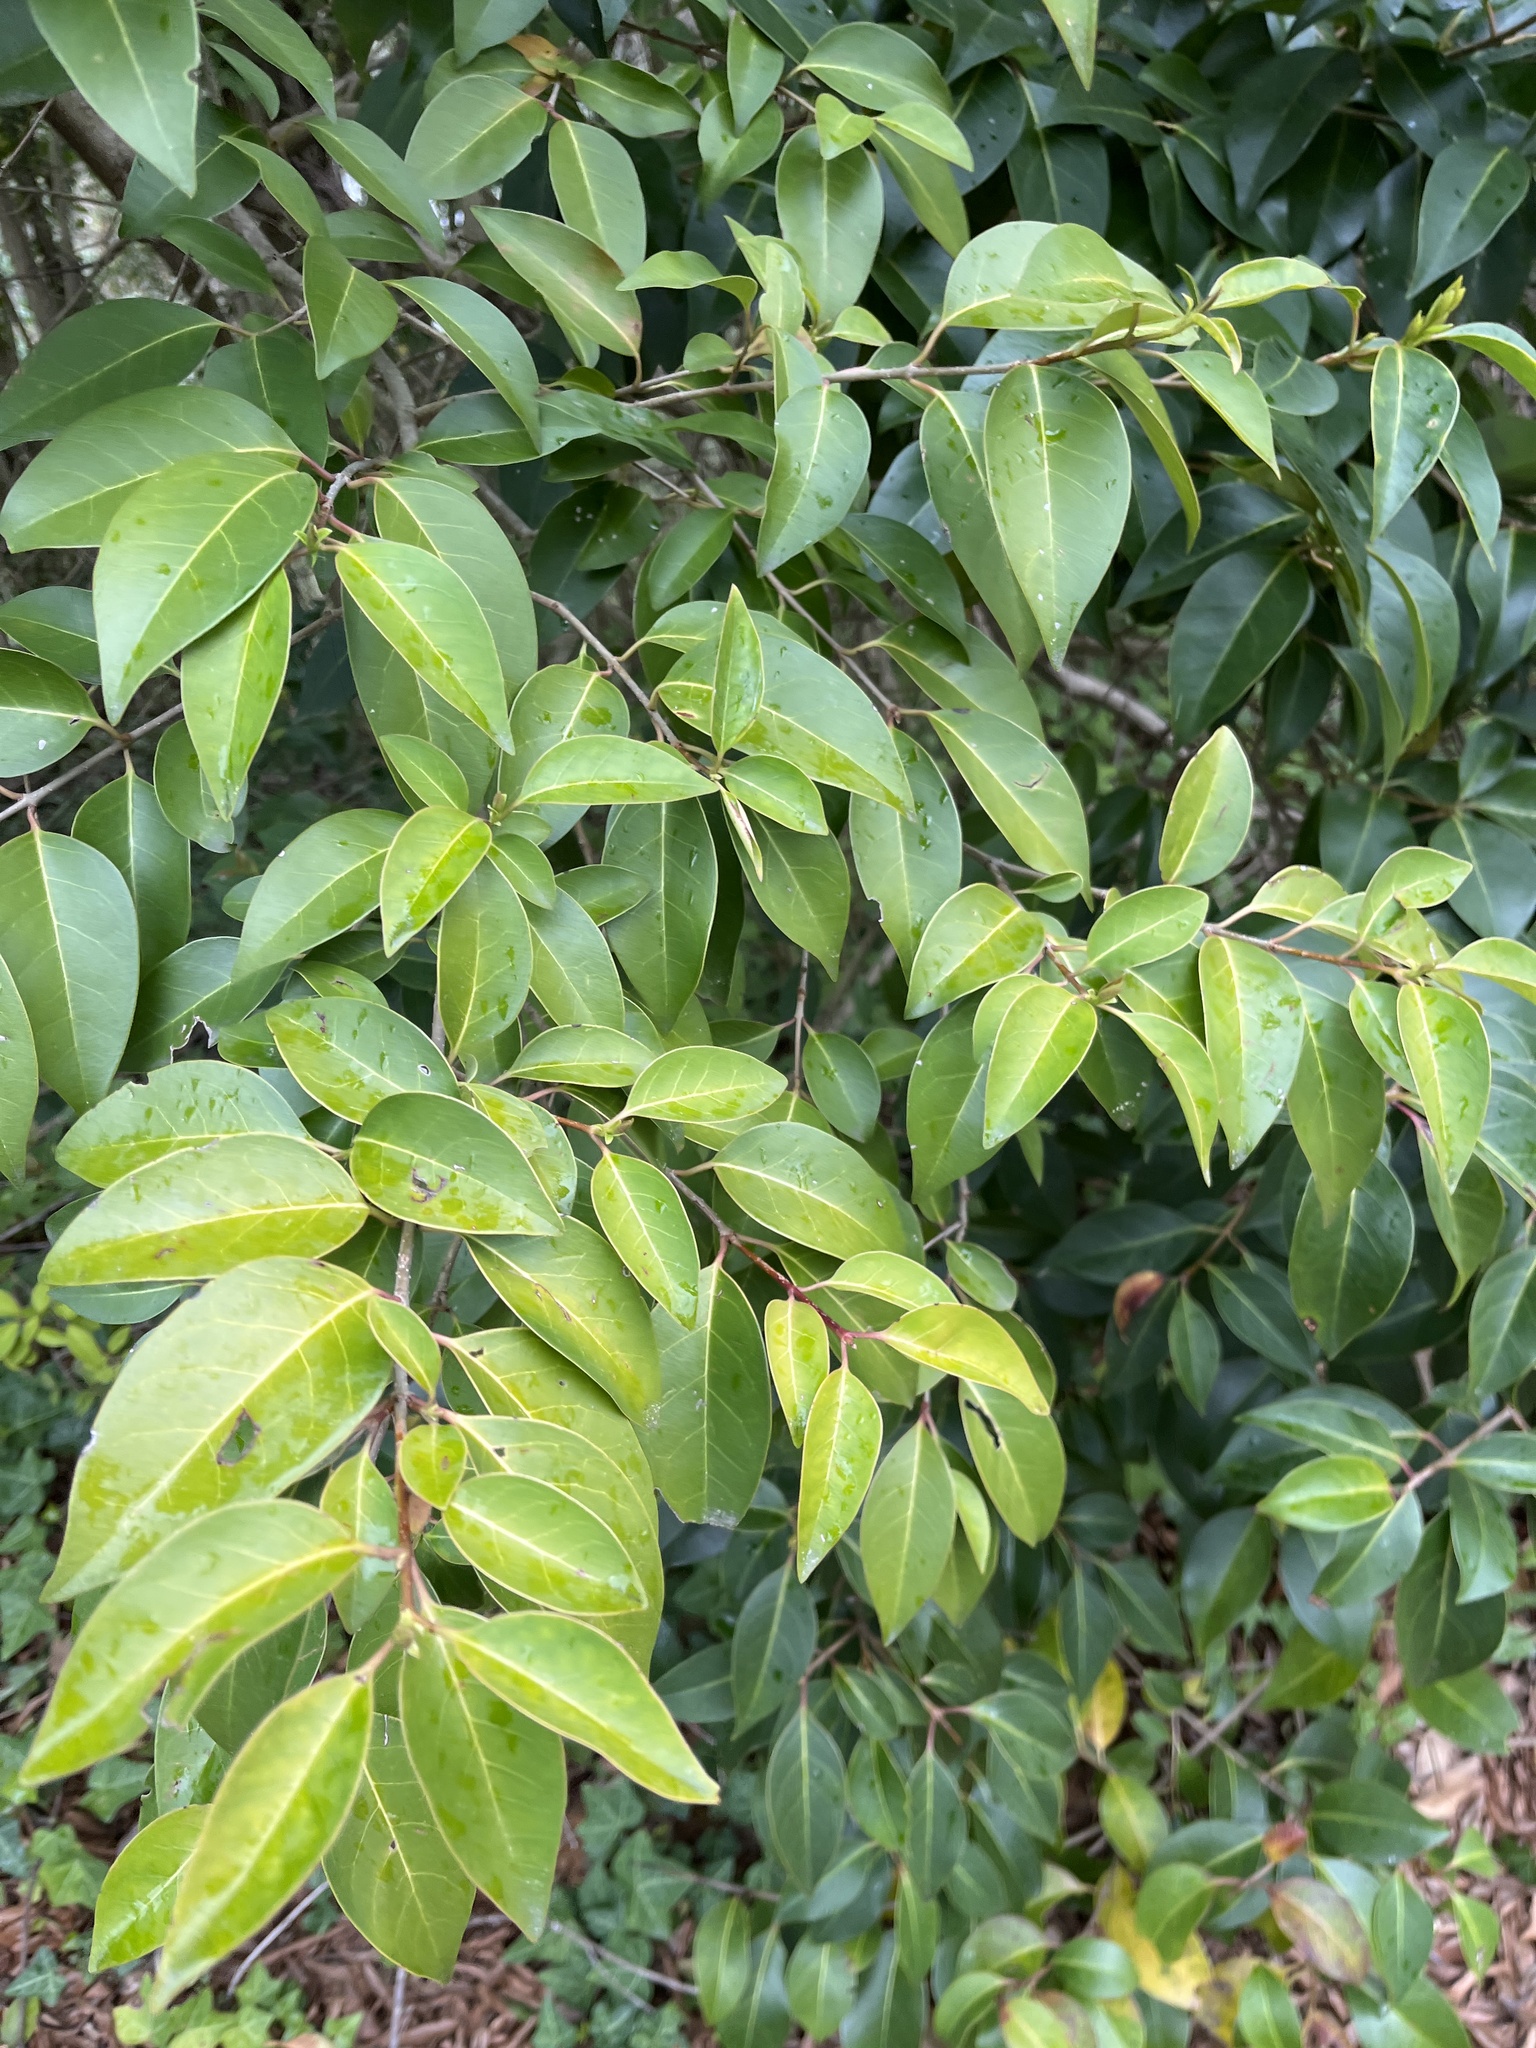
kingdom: Plantae
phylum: Tracheophyta
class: Magnoliopsida
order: Lamiales
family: Oleaceae
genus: Ligustrum
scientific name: Ligustrum lucidum
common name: Glossy privet
